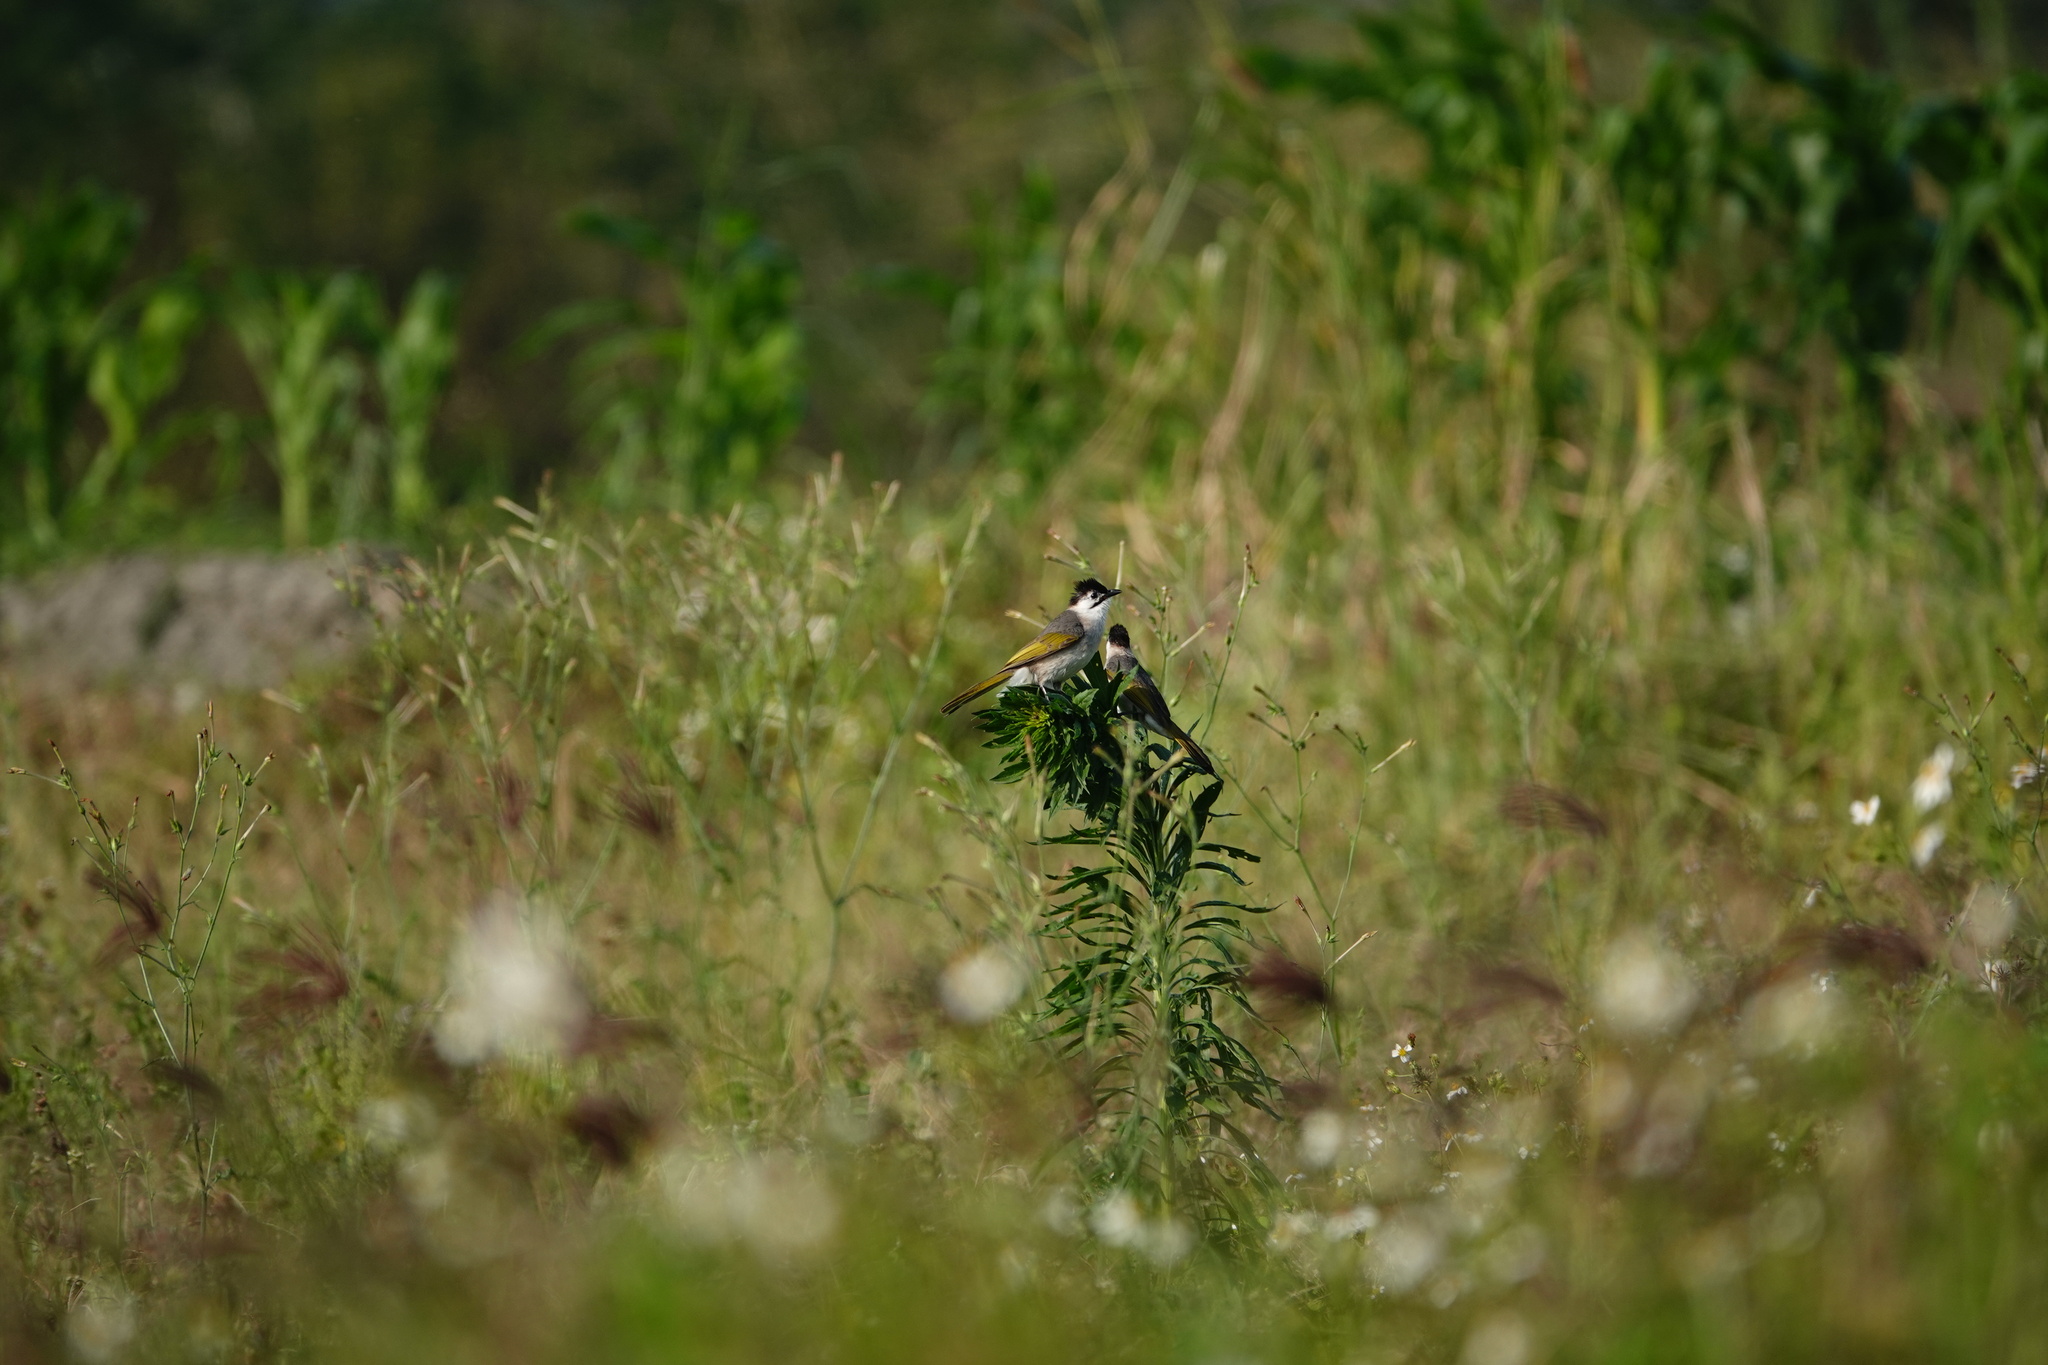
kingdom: Animalia
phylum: Chordata
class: Aves
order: Passeriformes
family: Pycnonotidae
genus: Pycnonotus
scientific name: Pycnonotus taivanus
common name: Styan's bulbul
